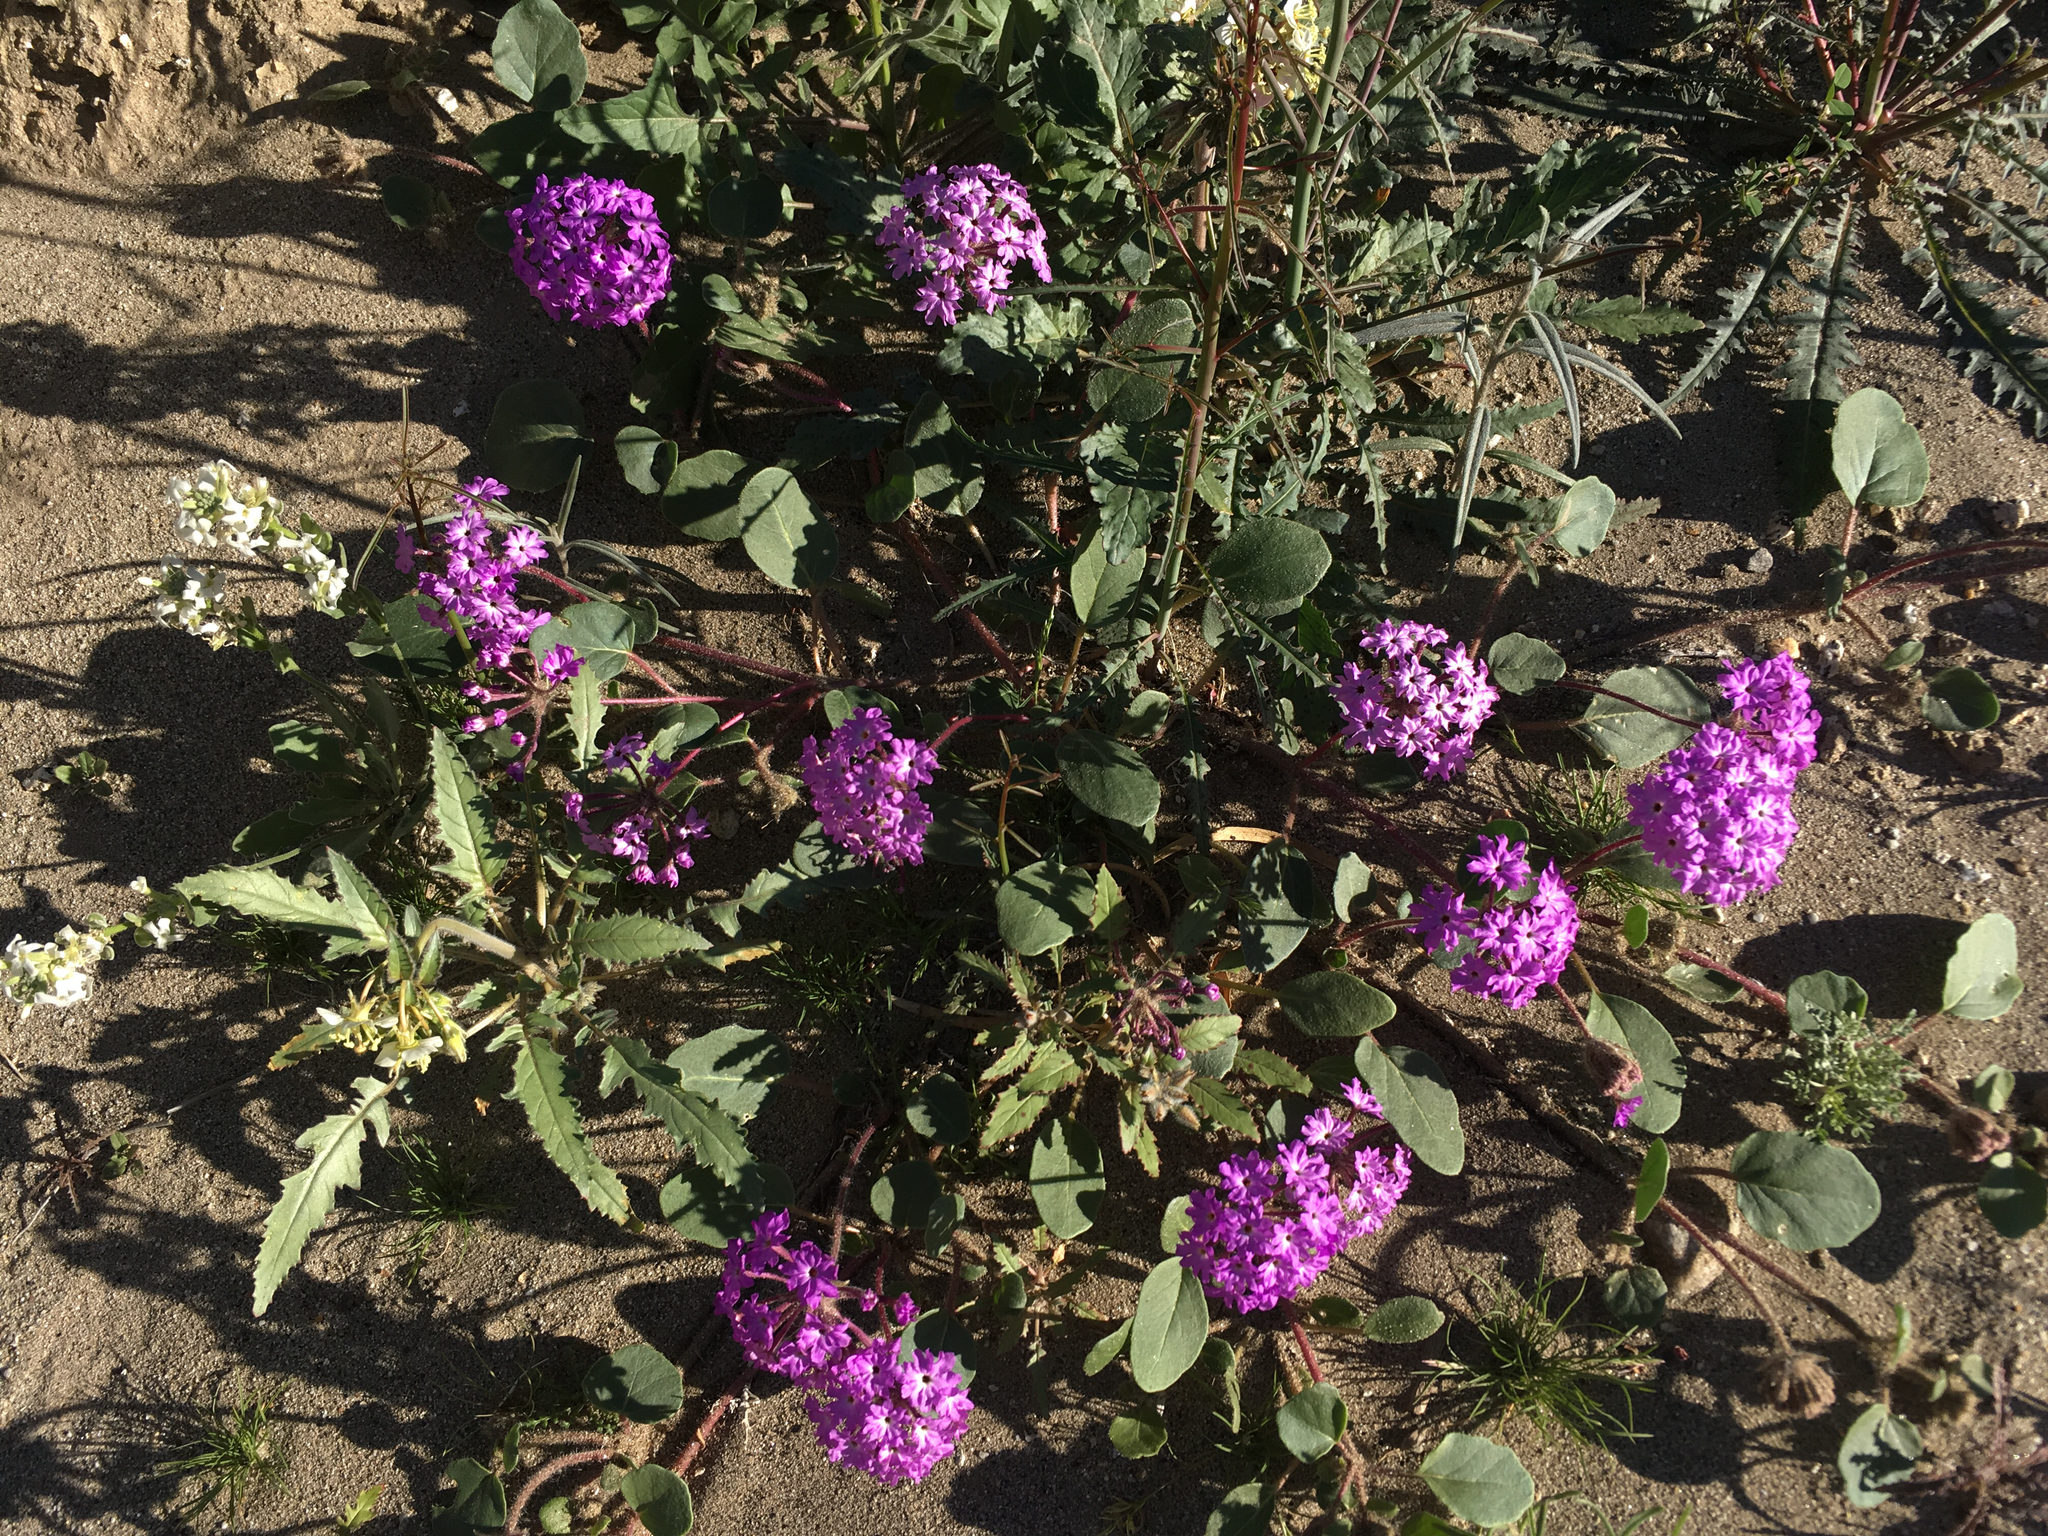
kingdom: Plantae
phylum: Tracheophyta
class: Magnoliopsida
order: Caryophyllales
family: Nyctaginaceae
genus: Abronia
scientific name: Abronia villosa
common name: Desert sand-verbena
